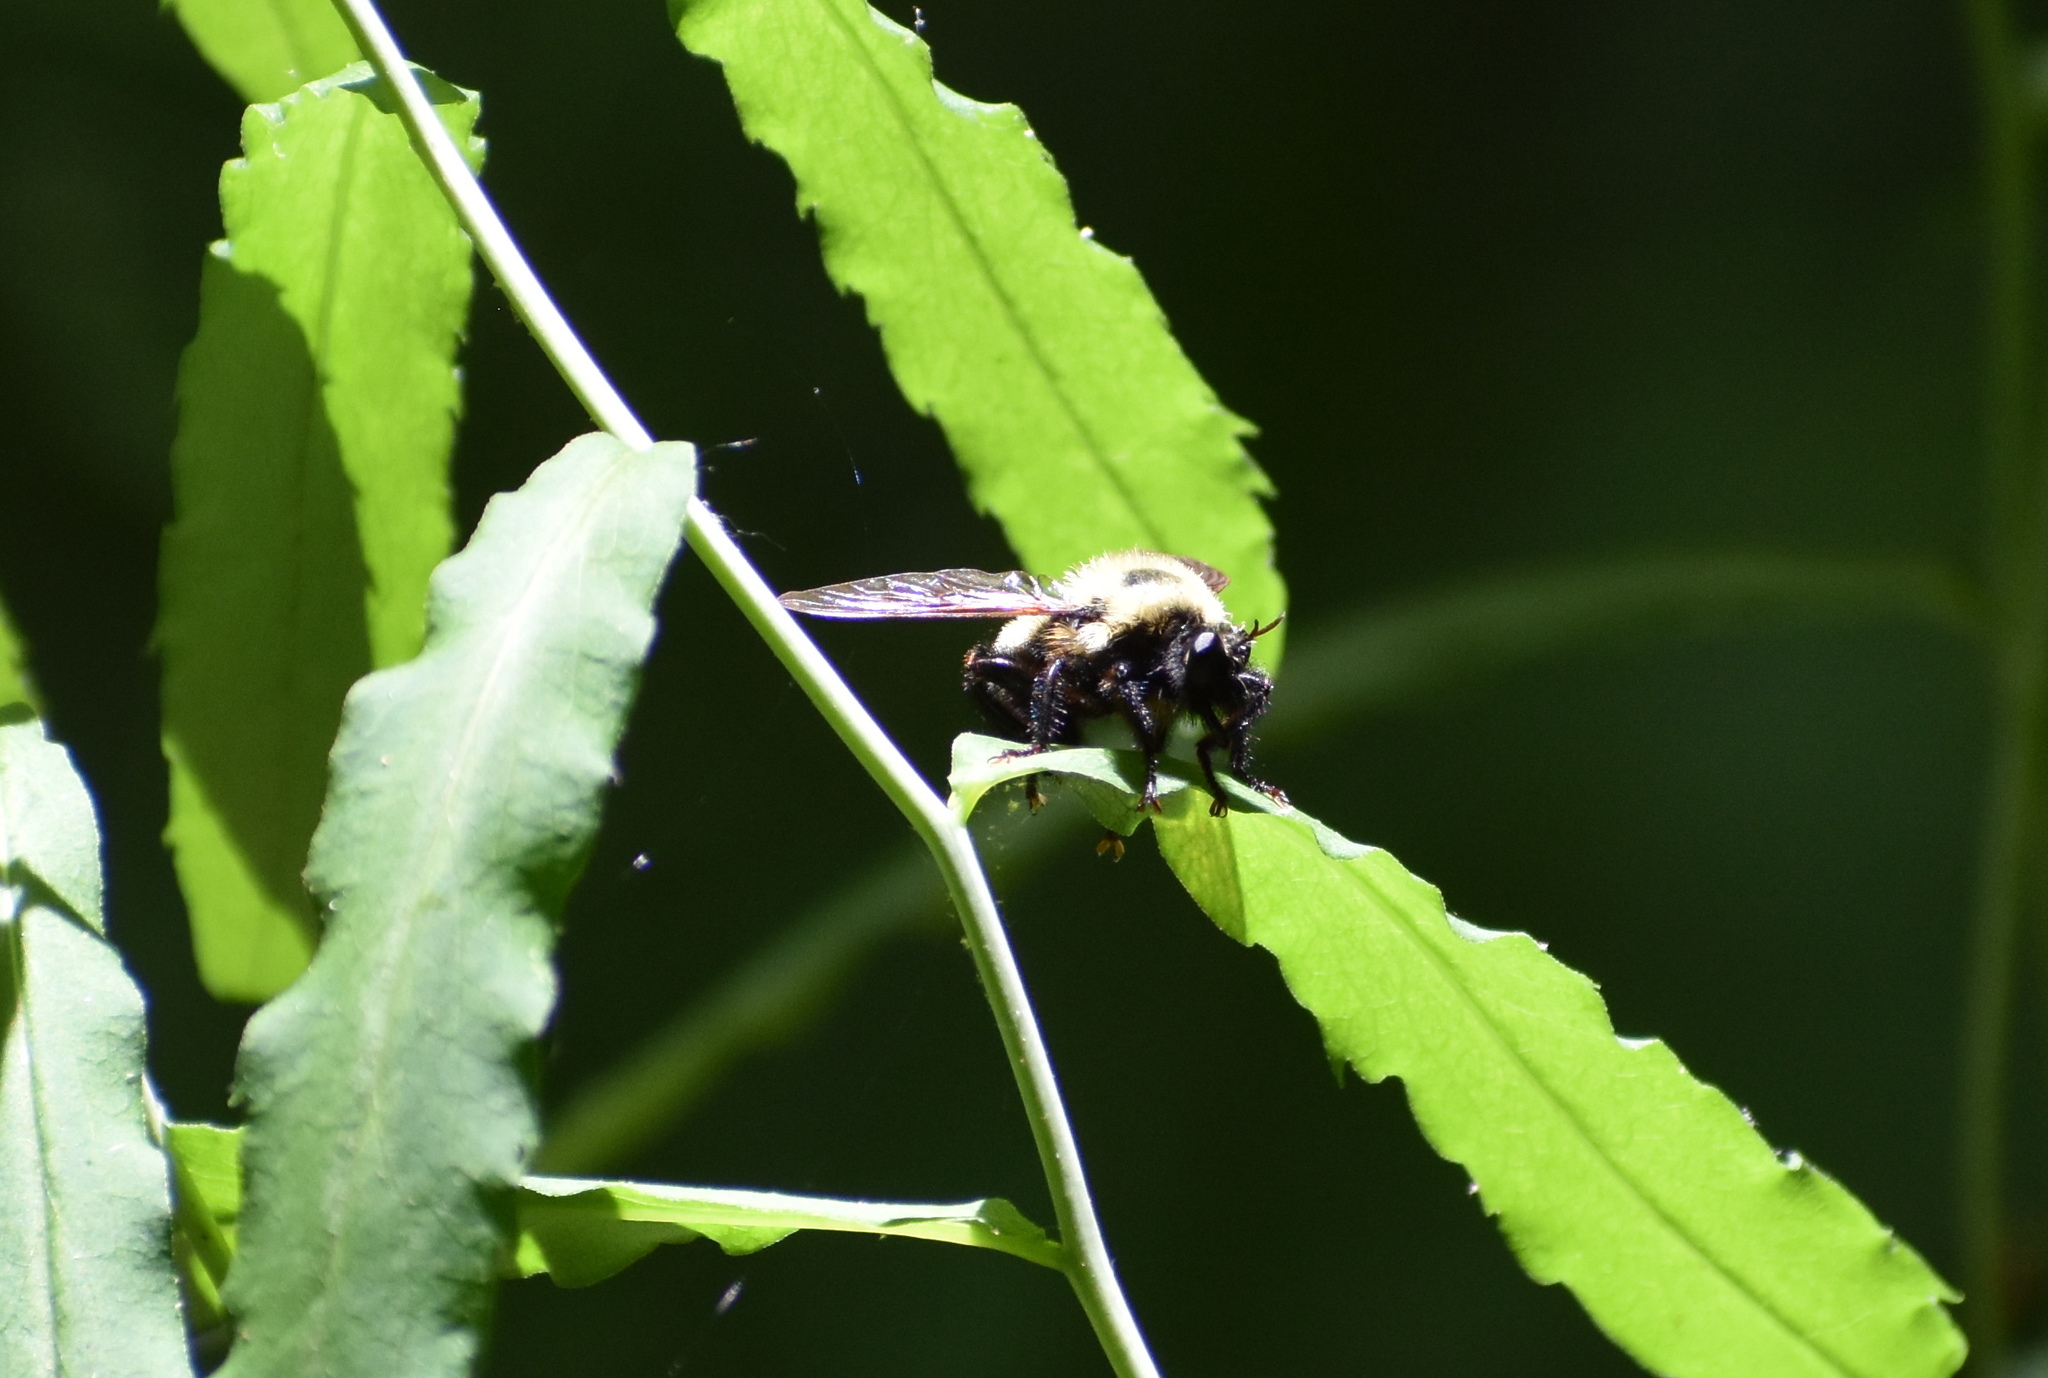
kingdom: Animalia
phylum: Arthropoda
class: Insecta
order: Diptera
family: Asilidae
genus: Laphria
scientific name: Laphria thoracica
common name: Bumble bee mimic robber fly
